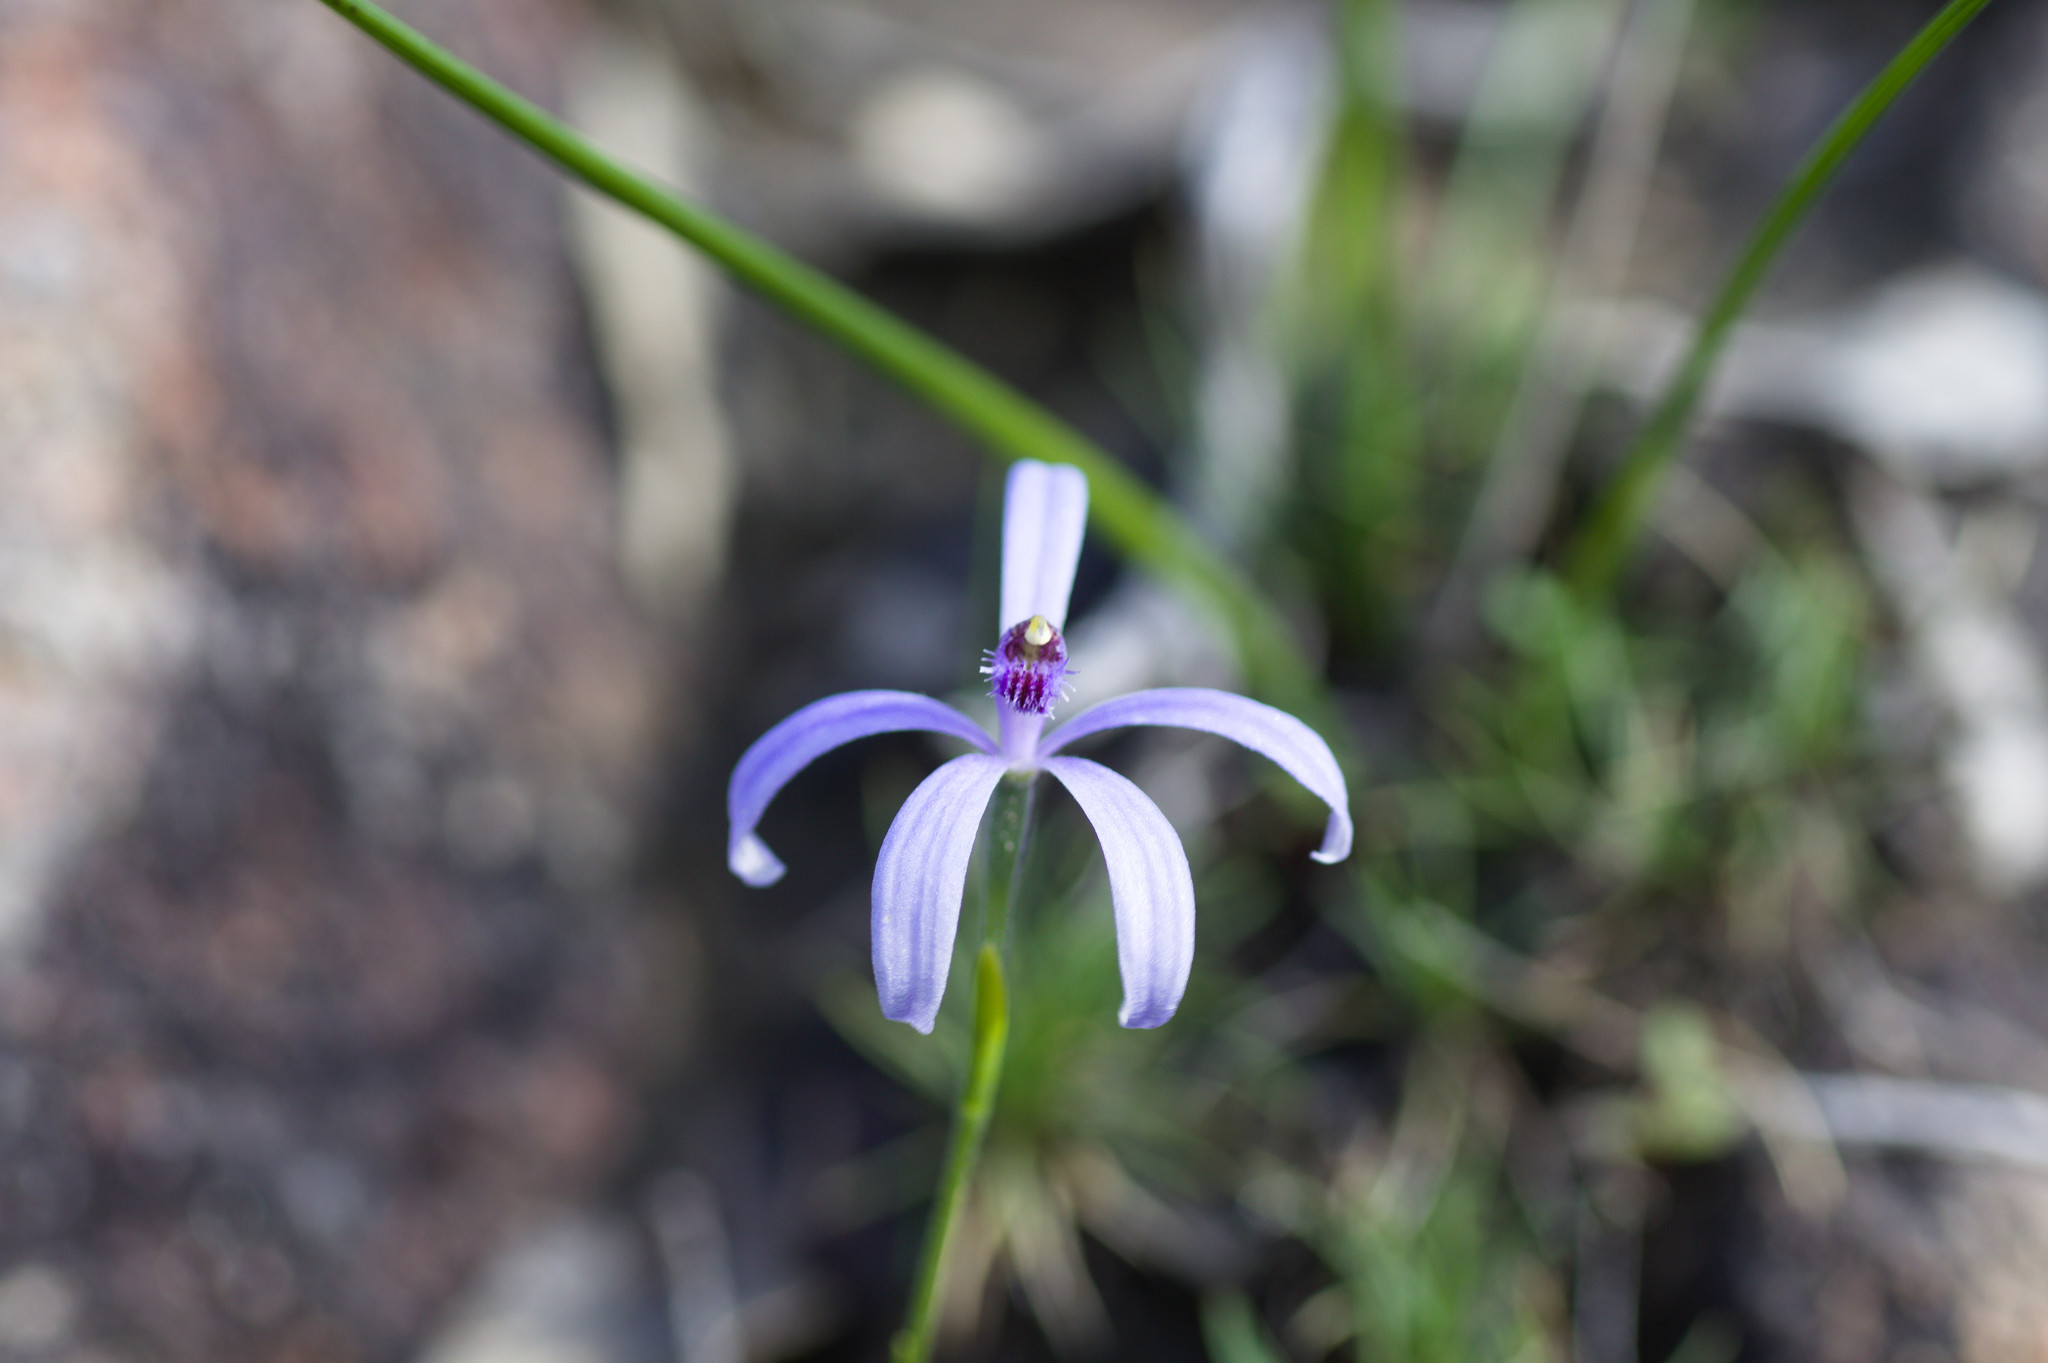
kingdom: Plantae
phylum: Tracheophyta
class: Liliopsida
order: Asparagales
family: Orchidaceae
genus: Pheladenia
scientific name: Pheladenia deformis
